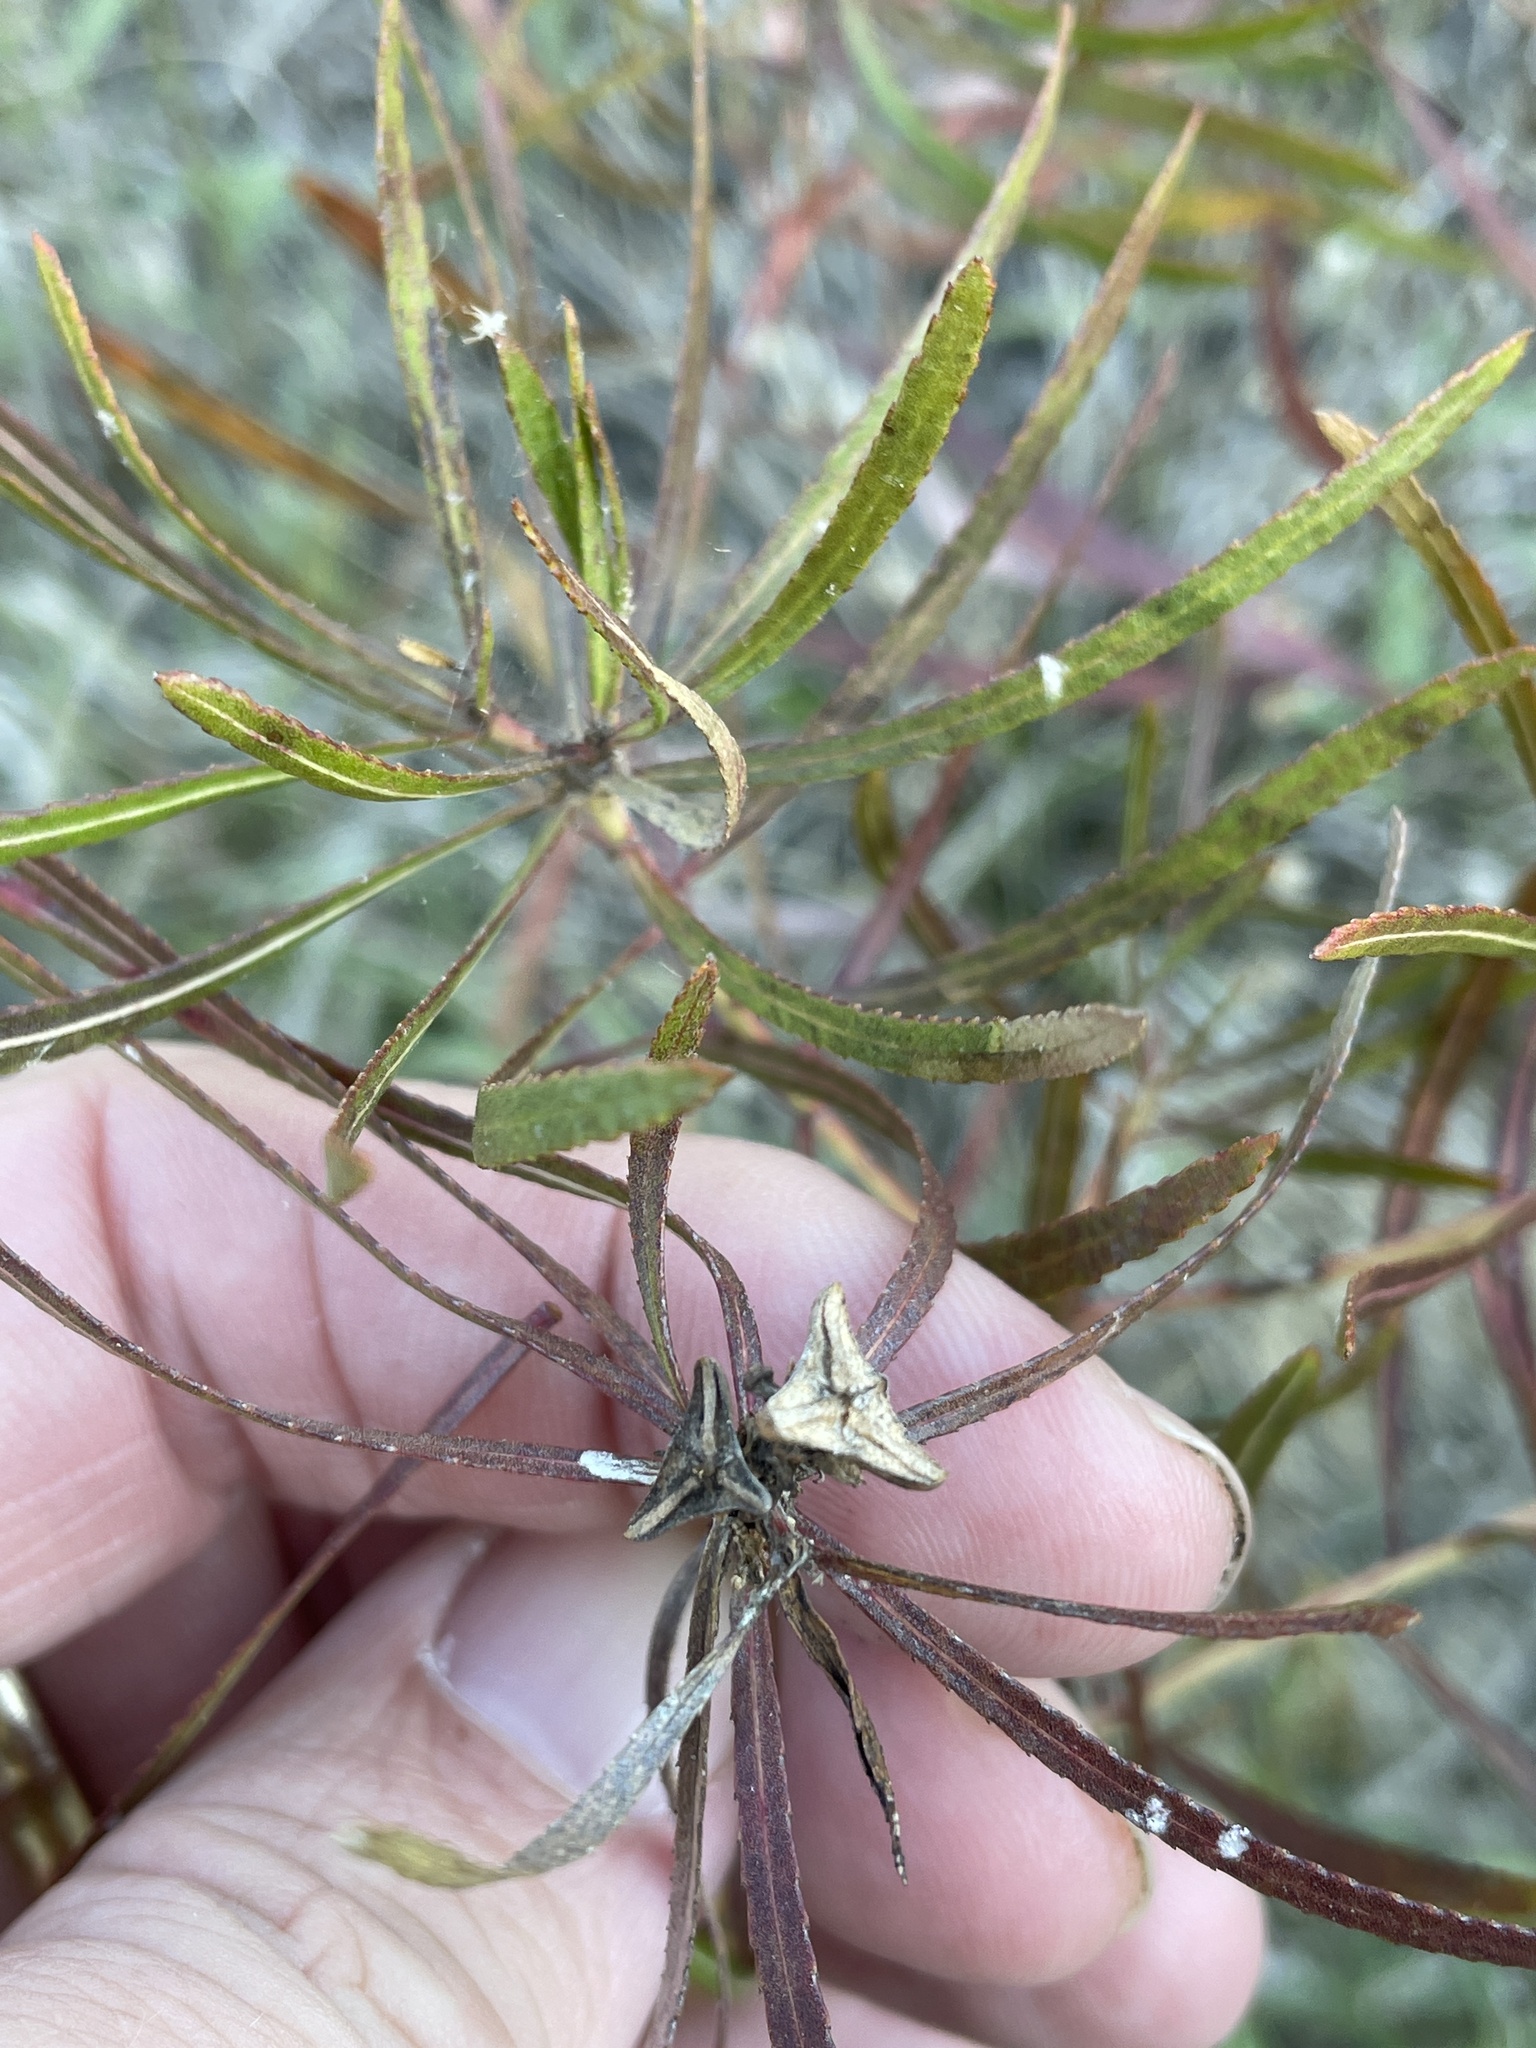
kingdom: Plantae
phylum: Tracheophyta
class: Magnoliopsida
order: Malpighiales
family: Euphorbiaceae
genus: Stillingia
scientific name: Stillingia texana
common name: Texas stillingia
